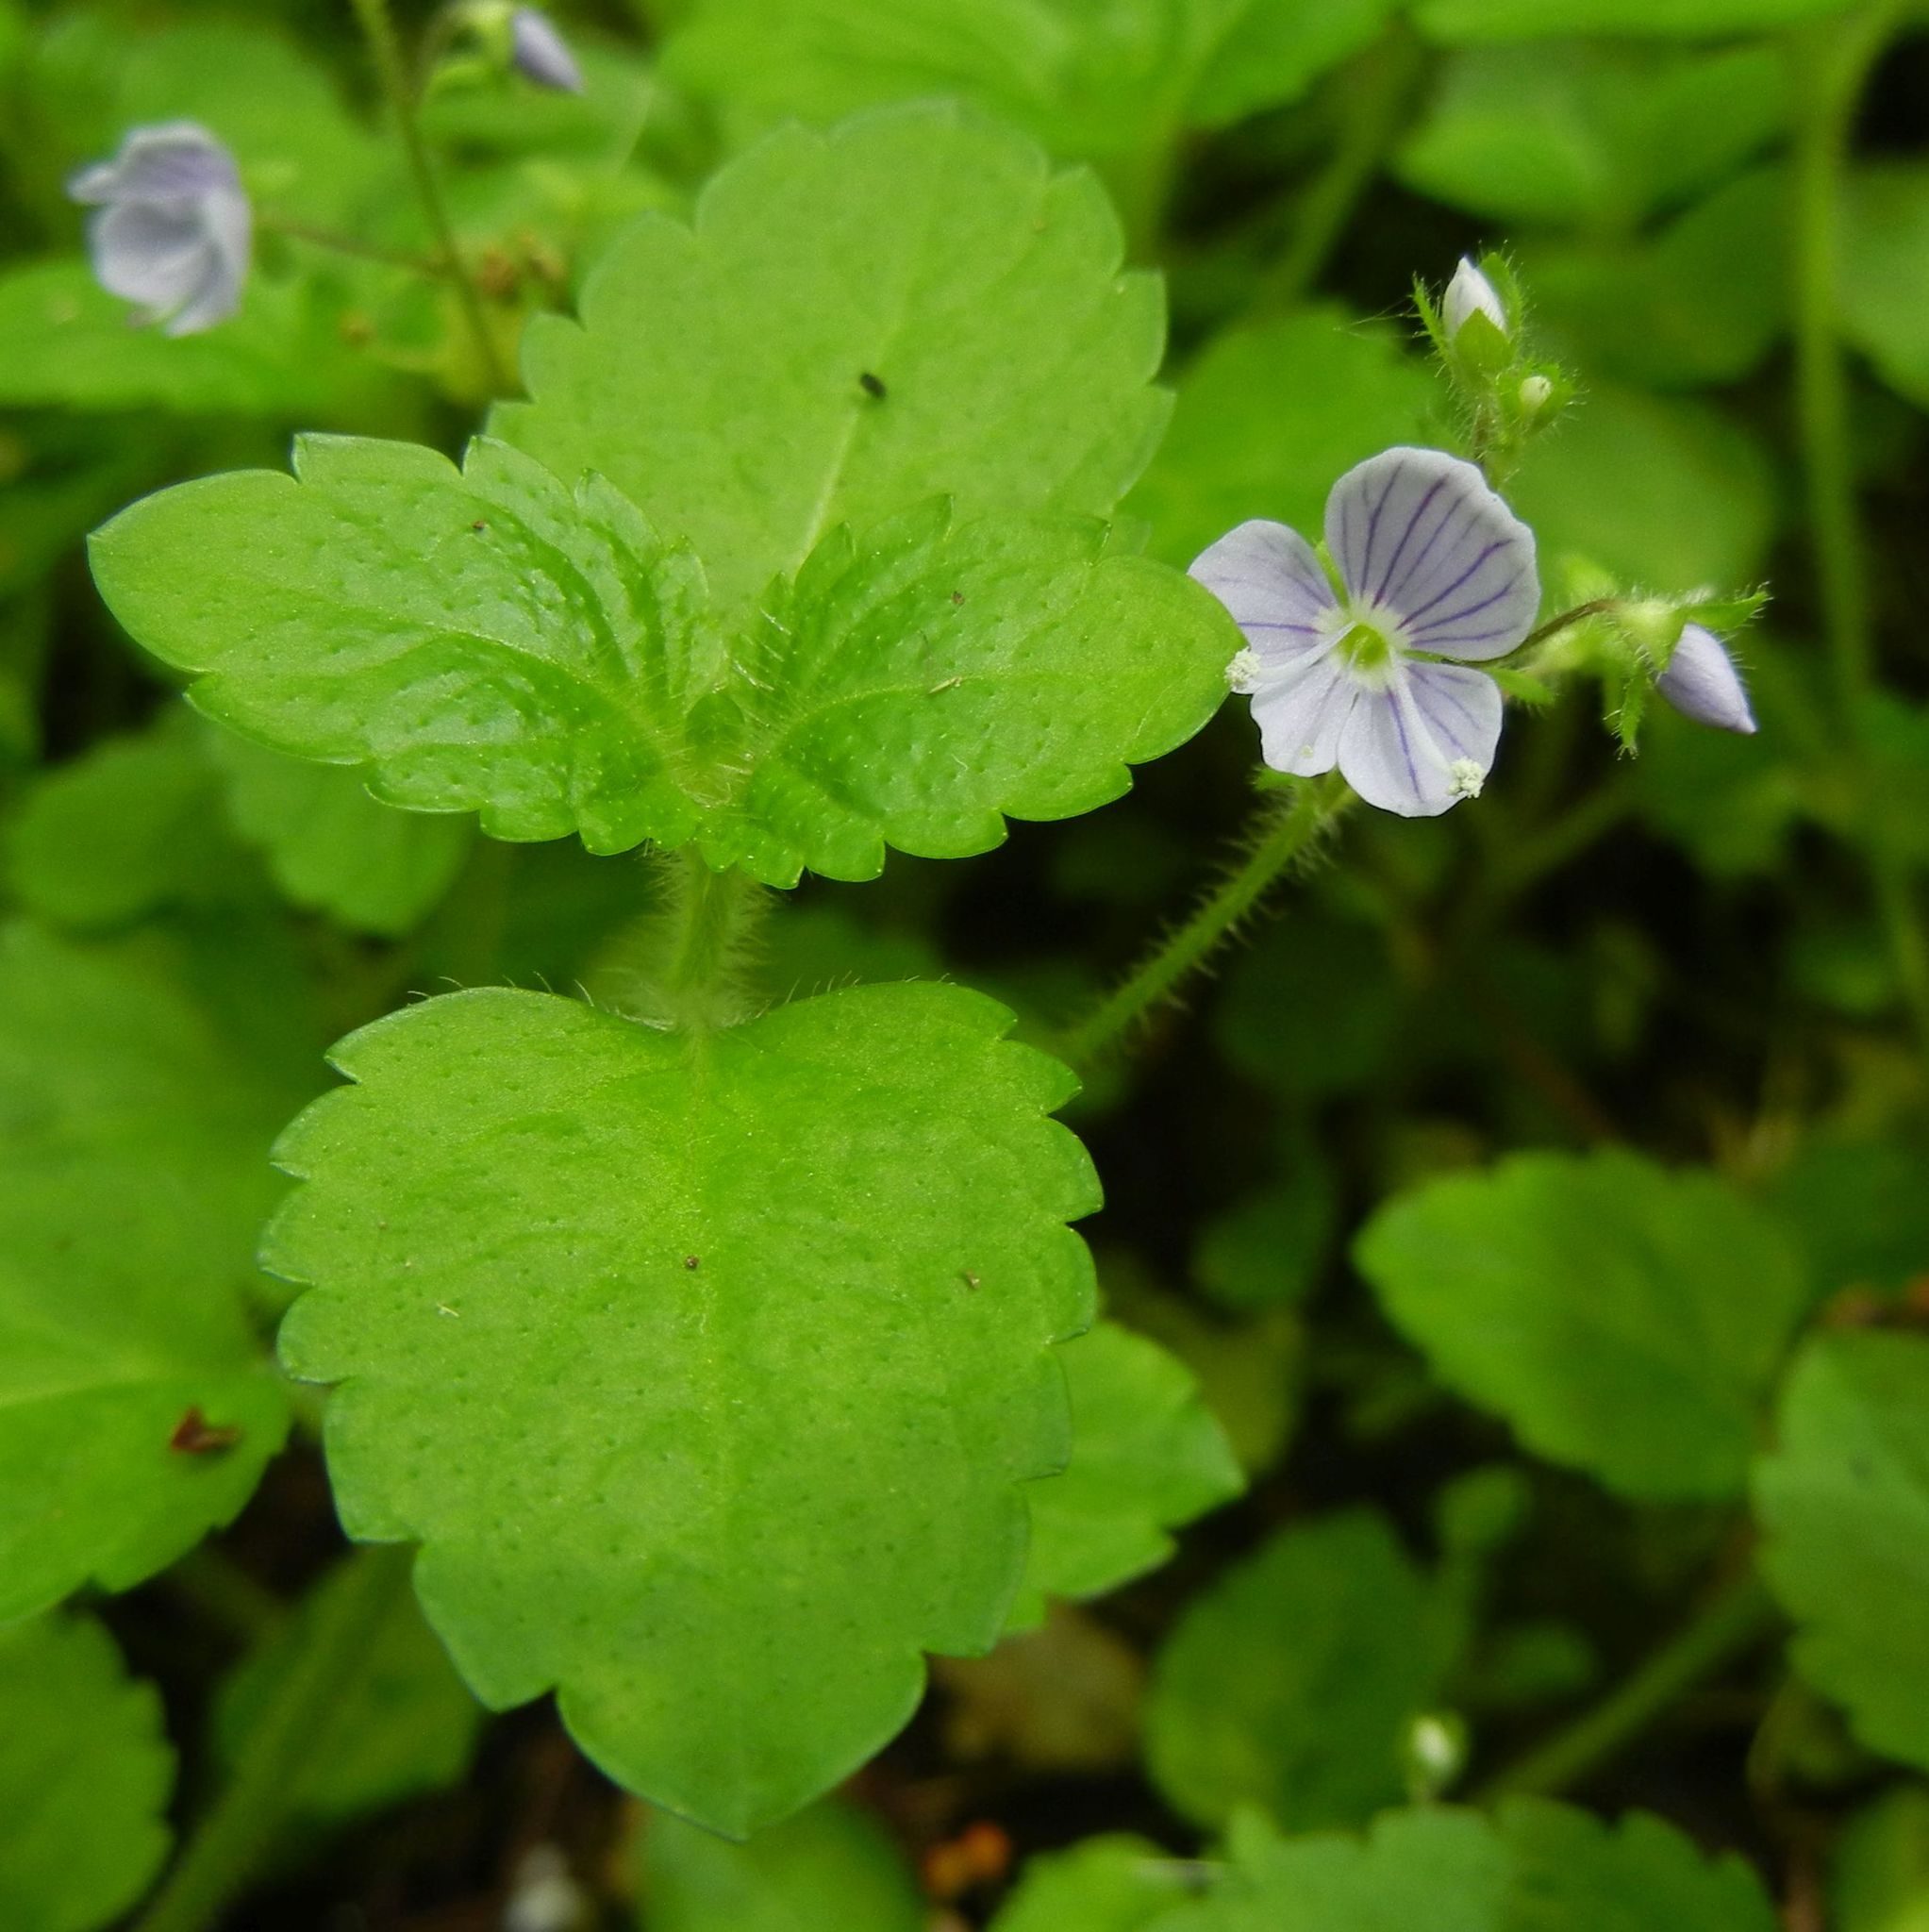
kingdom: Plantae
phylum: Tracheophyta
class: Magnoliopsida
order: Lamiales
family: Plantaginaceae
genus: Veronica
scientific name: Veronica montana
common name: Wood speedwell
